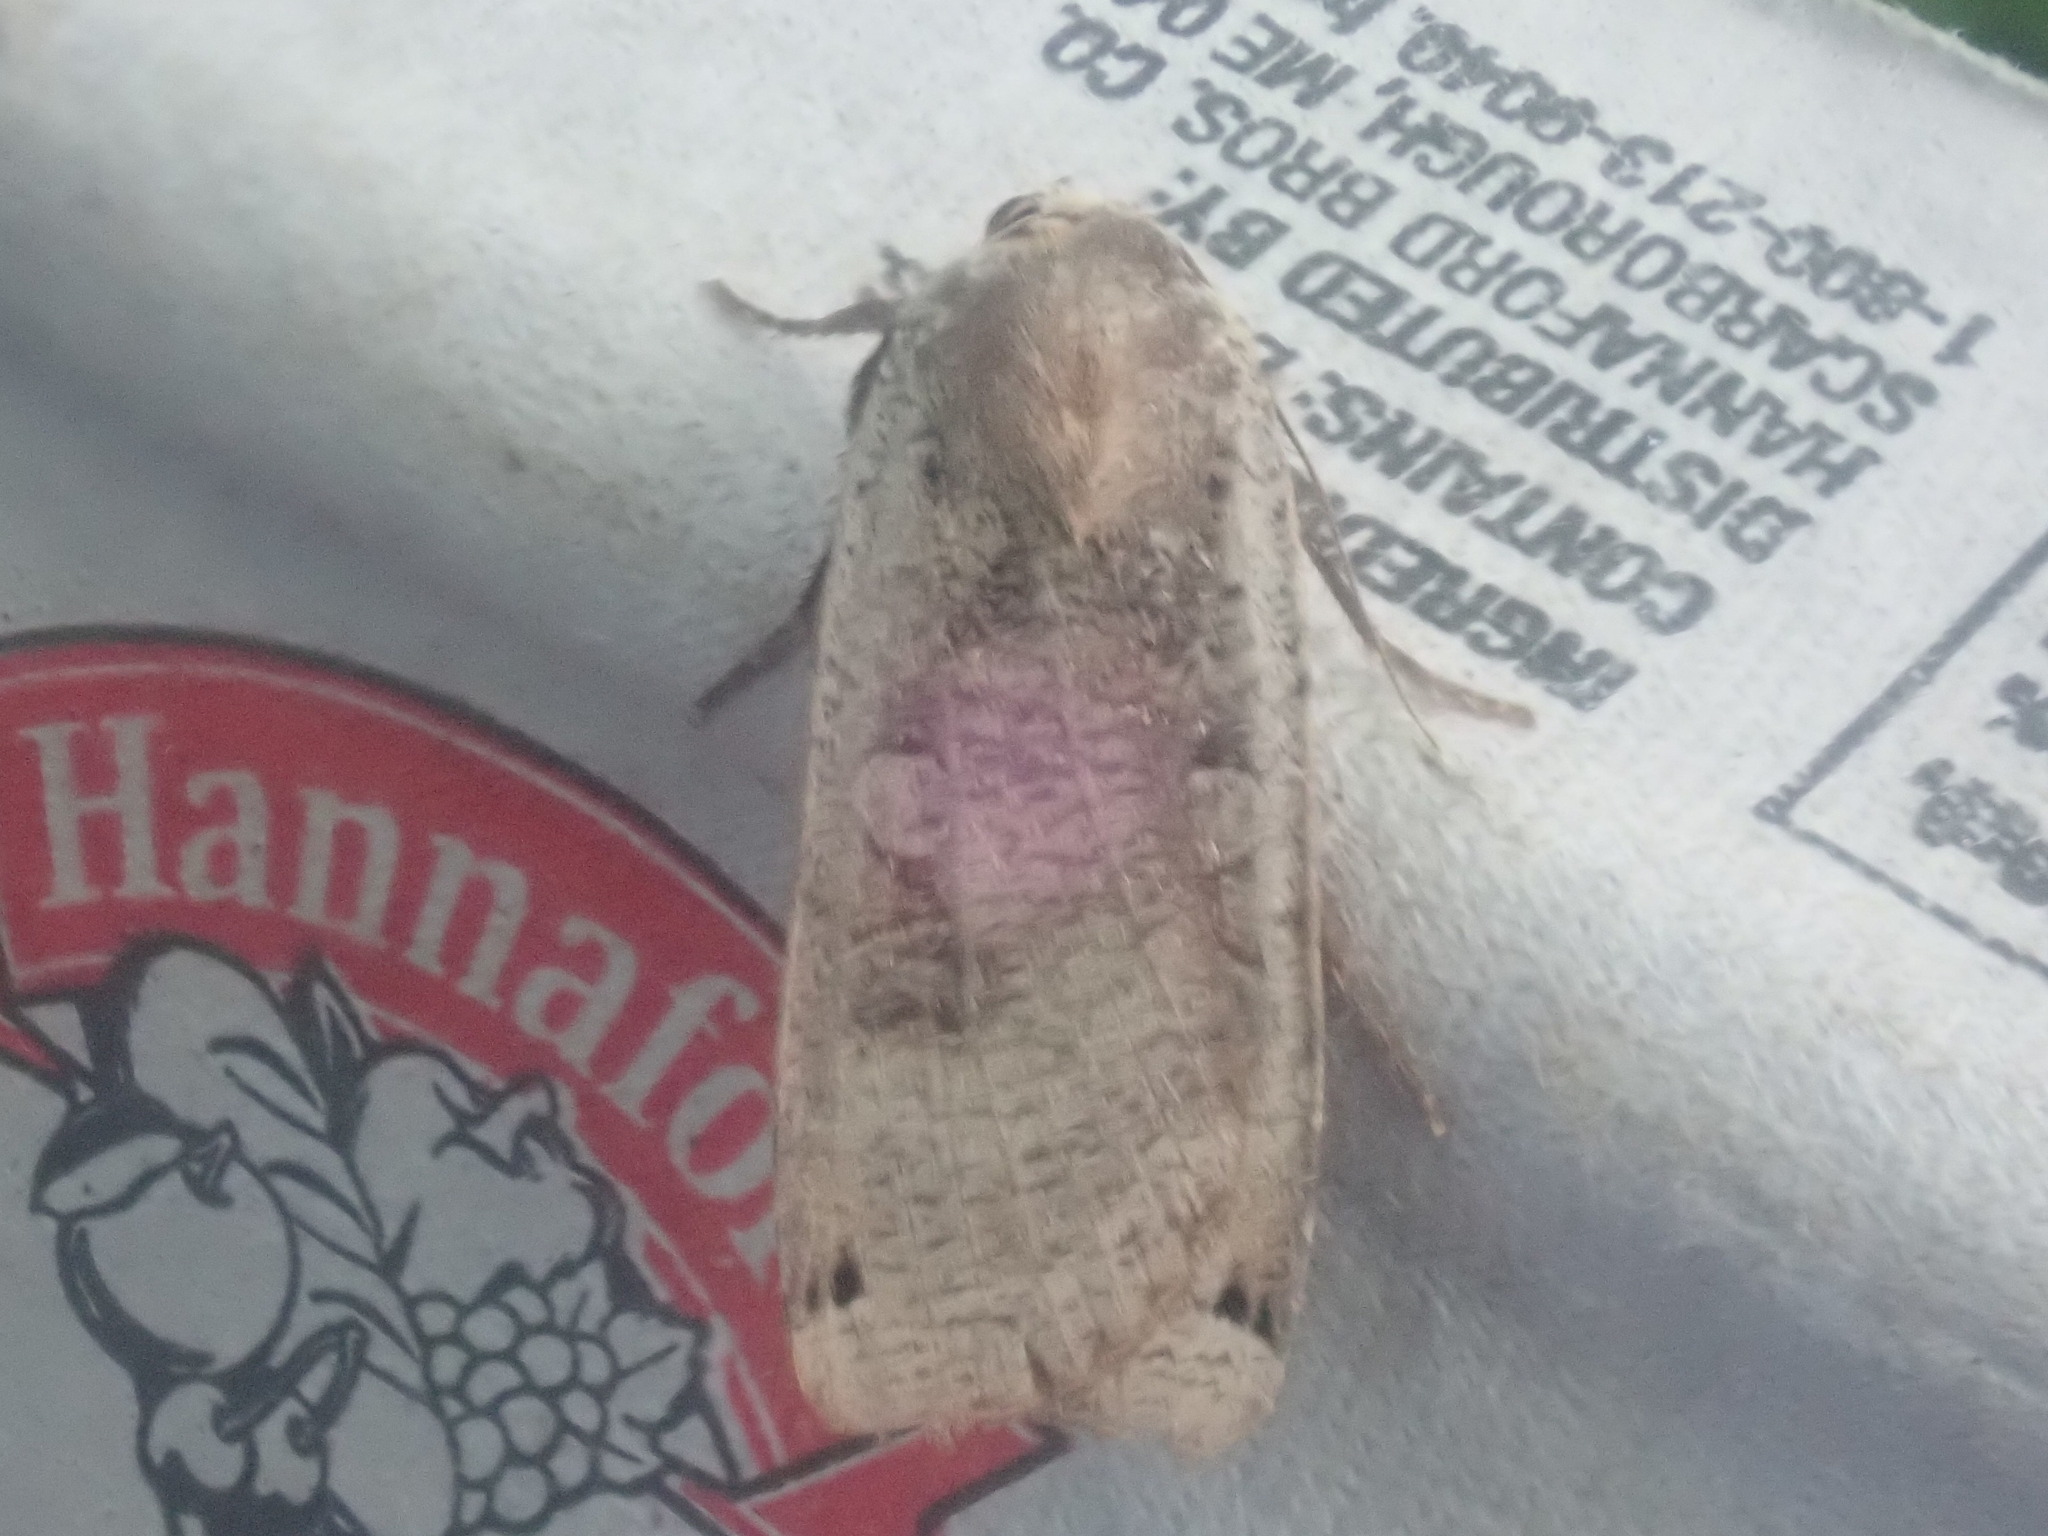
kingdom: Animalia
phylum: Arthropoda
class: Insecta
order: Lepidoptera
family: Noctuidae
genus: Noctua
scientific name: Noctua pronuba
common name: Large yellow underwing
